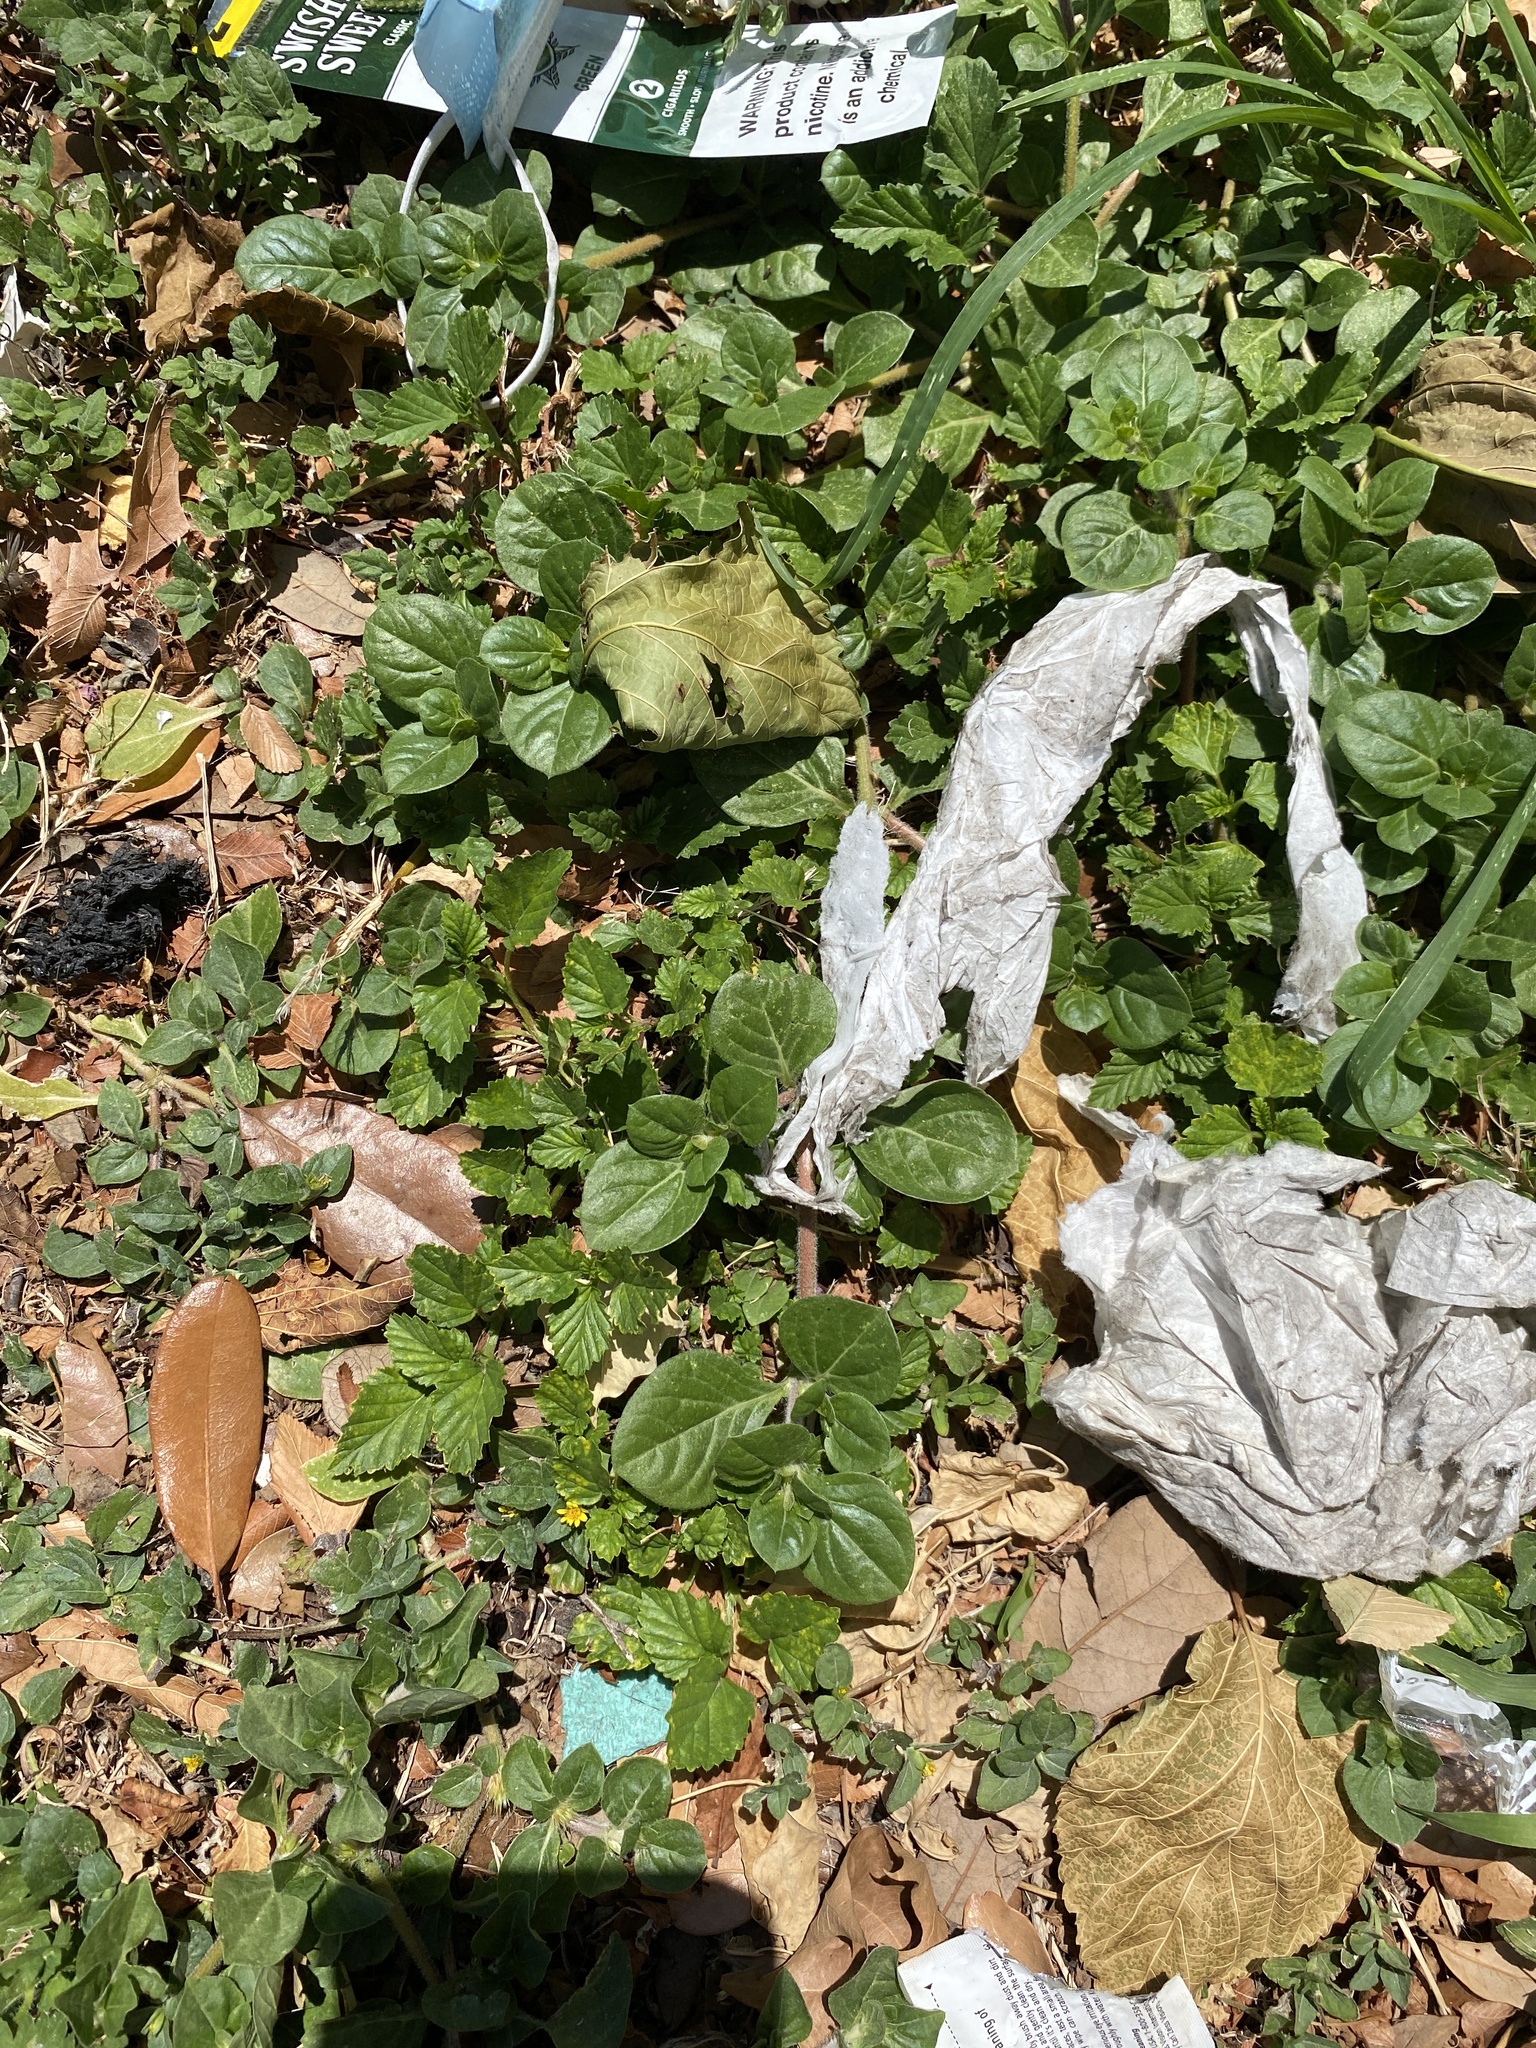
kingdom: Plantae
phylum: Tracheophyta
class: Magnoliopsida
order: Caryophyllales
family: Amaranthaceae
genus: Alternanthera
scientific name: Alternanthera pungens
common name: Khakiweed
